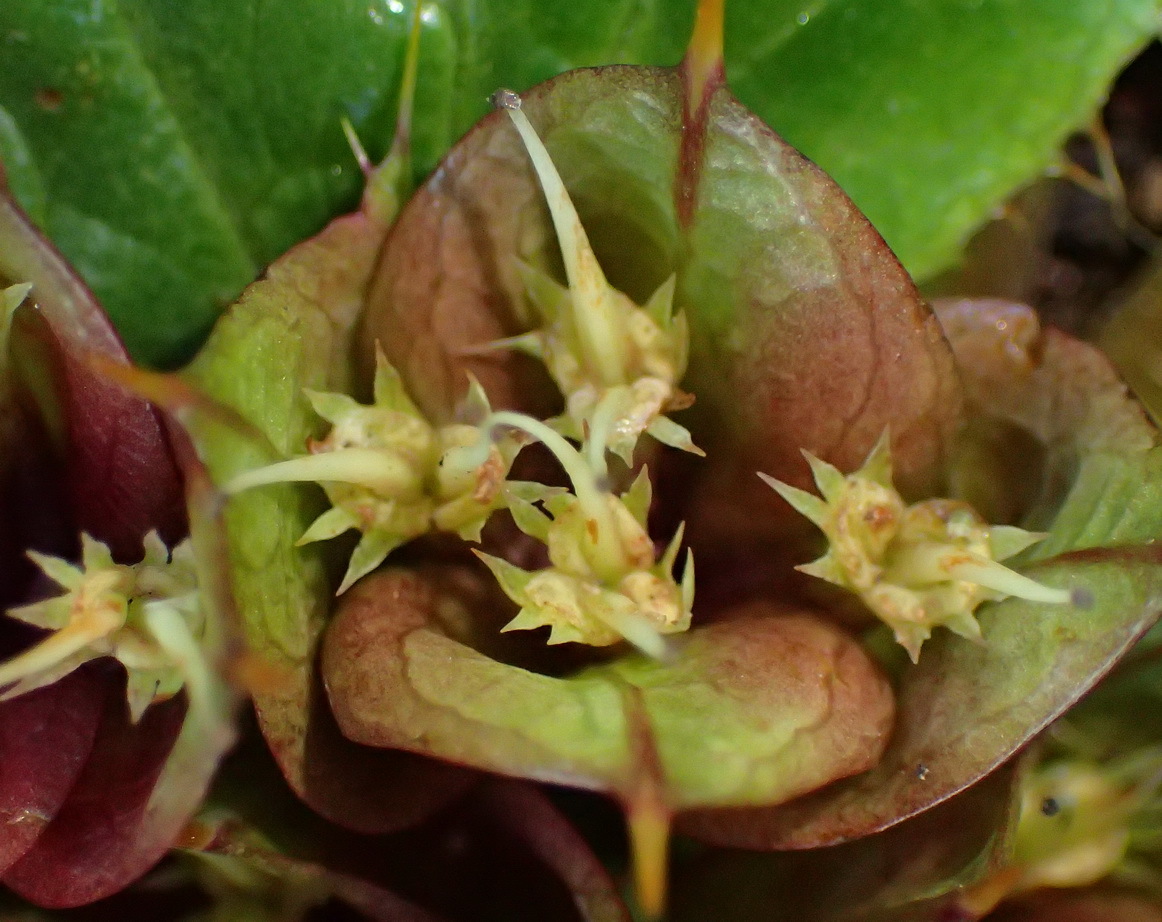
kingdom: Plantae
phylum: Tracheophyta
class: Magnoliopsida
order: Apiales
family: Apiaceae
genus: Arctopus
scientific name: Arctopus monacanthus
